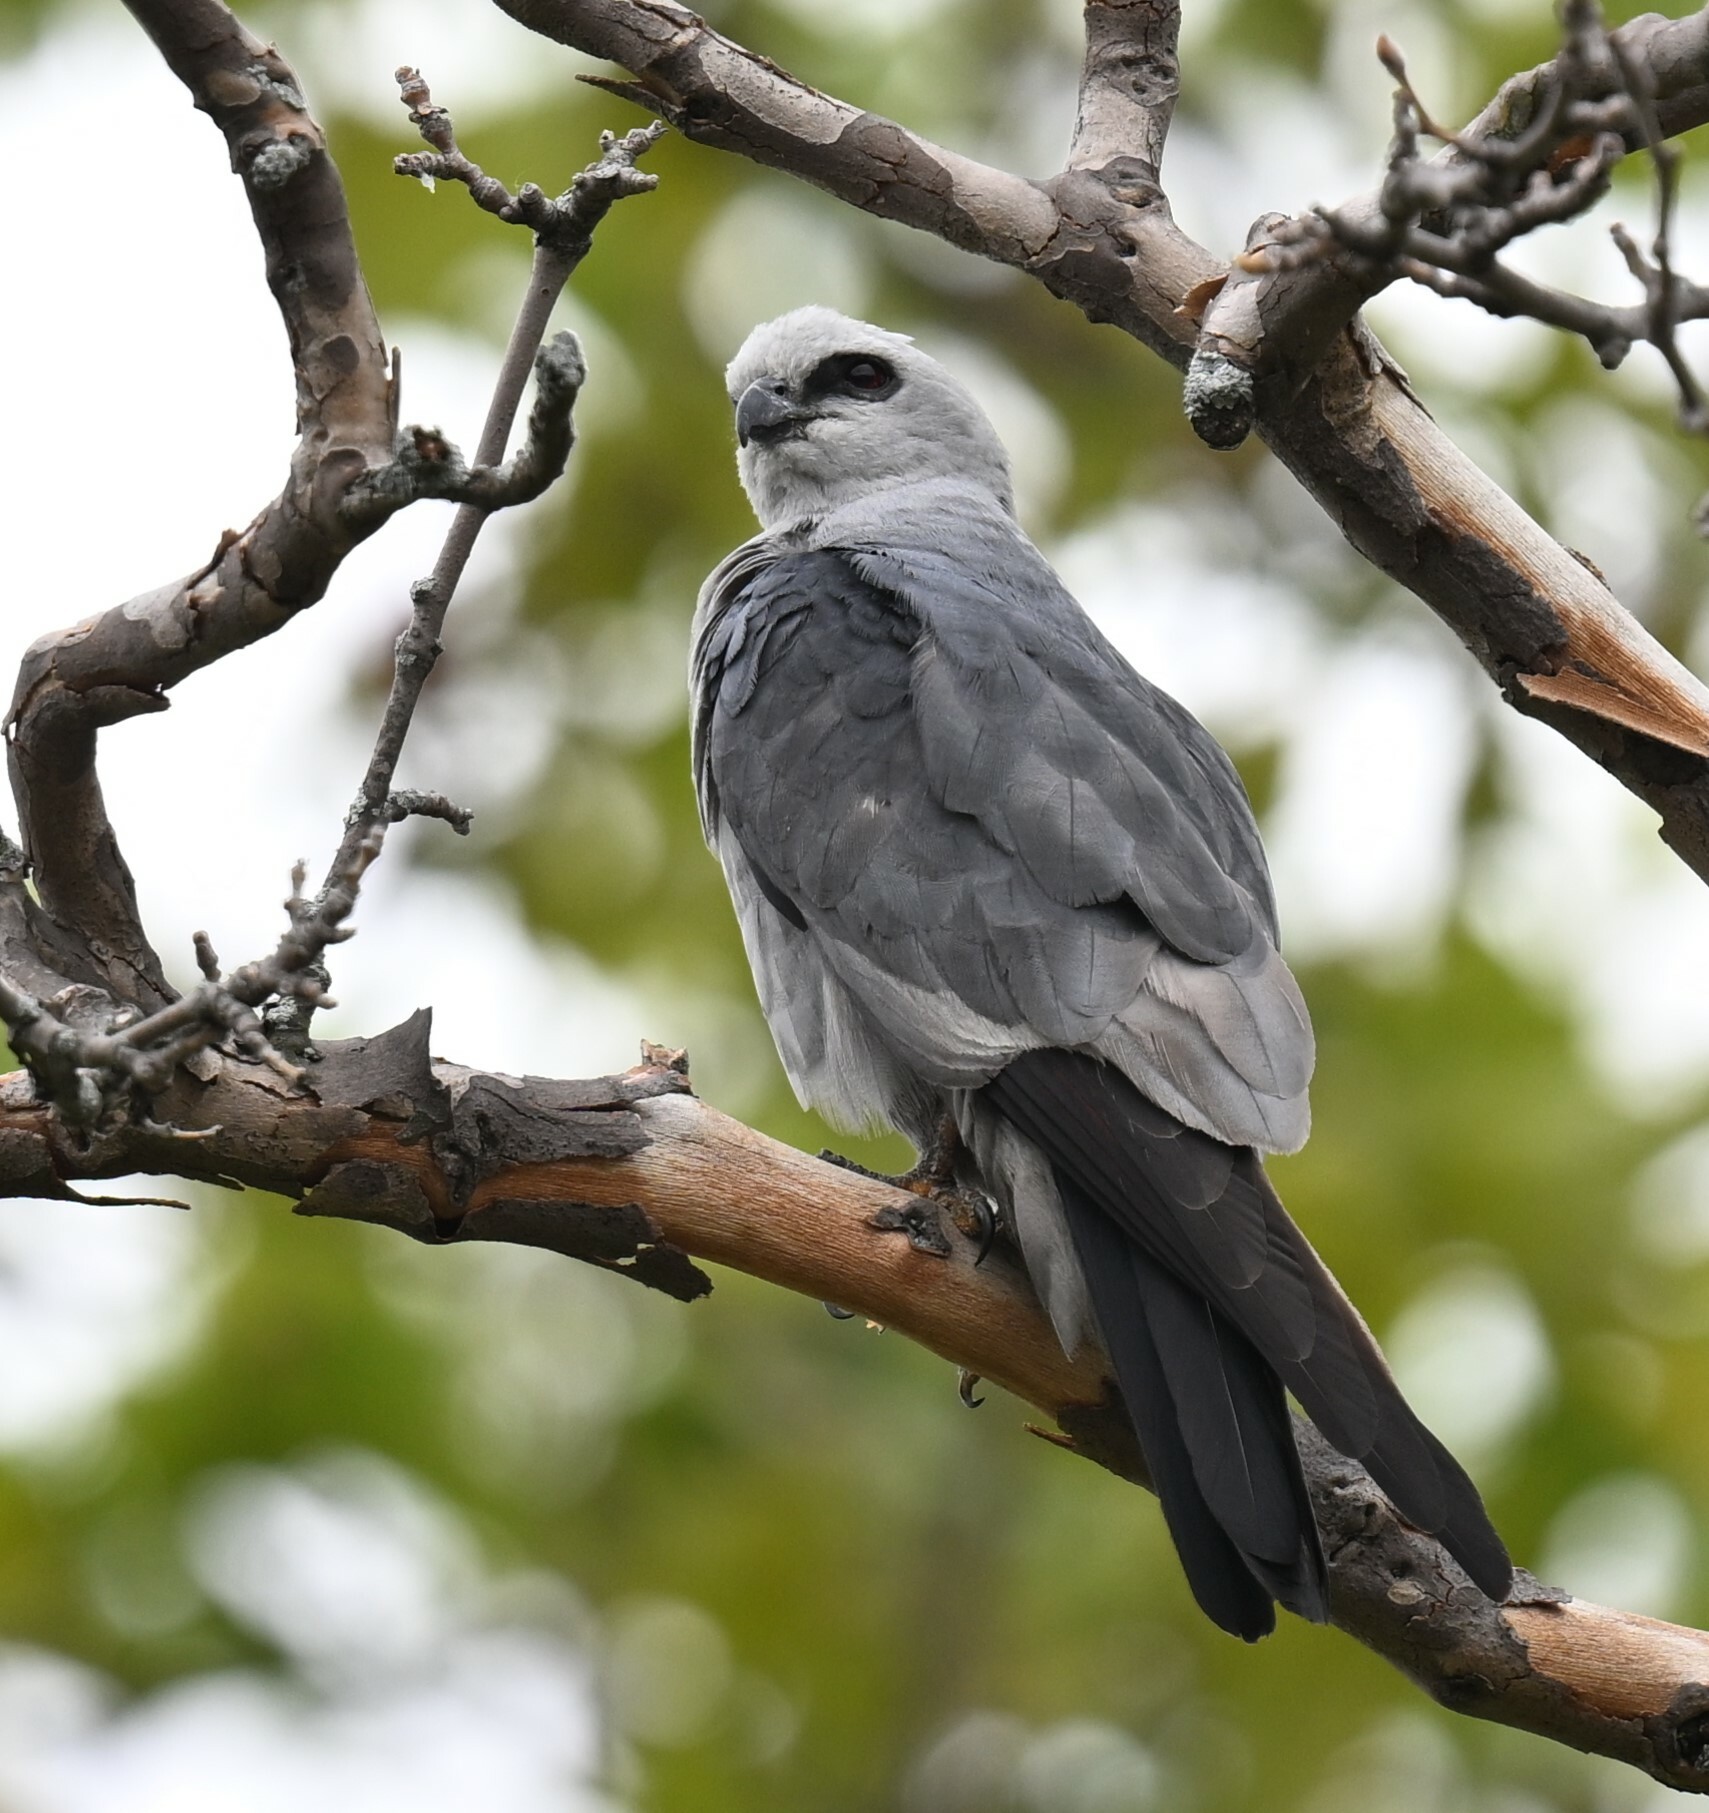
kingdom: Animalia
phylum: Chordata
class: Aves
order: Accipitriformes
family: Accipitridae
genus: Ictinia
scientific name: Ictinia mississippiensis
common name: Mississippi kite
